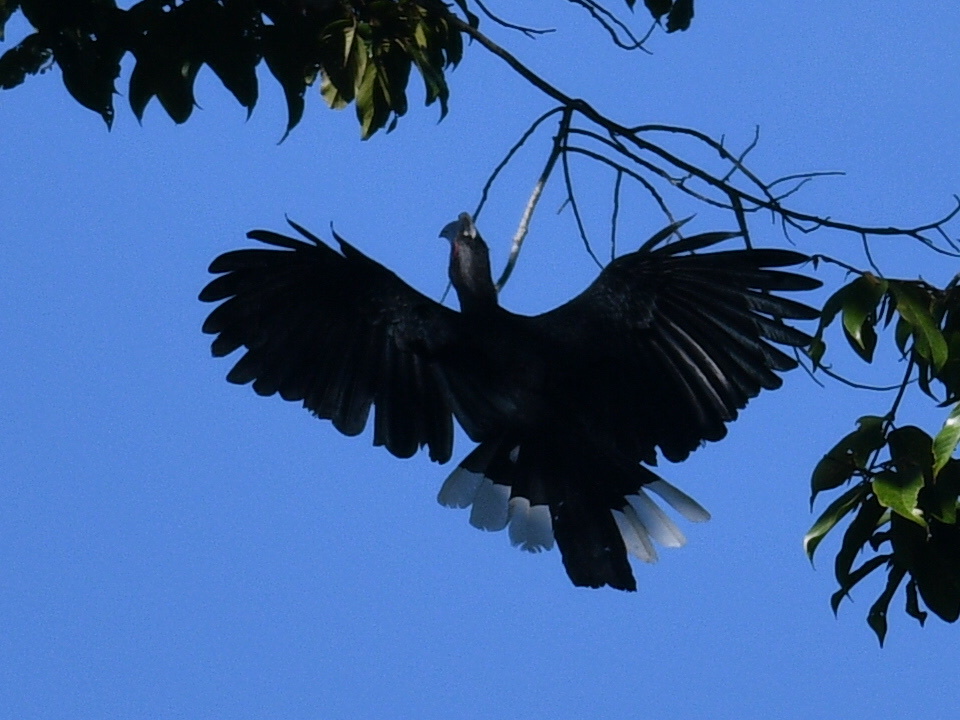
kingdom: Animalia
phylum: Chordata
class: Aves
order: Bucerotiformes
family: Bucerotidae
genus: Anthracoceros
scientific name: Anthracoceros malayanus
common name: Black hornbill
